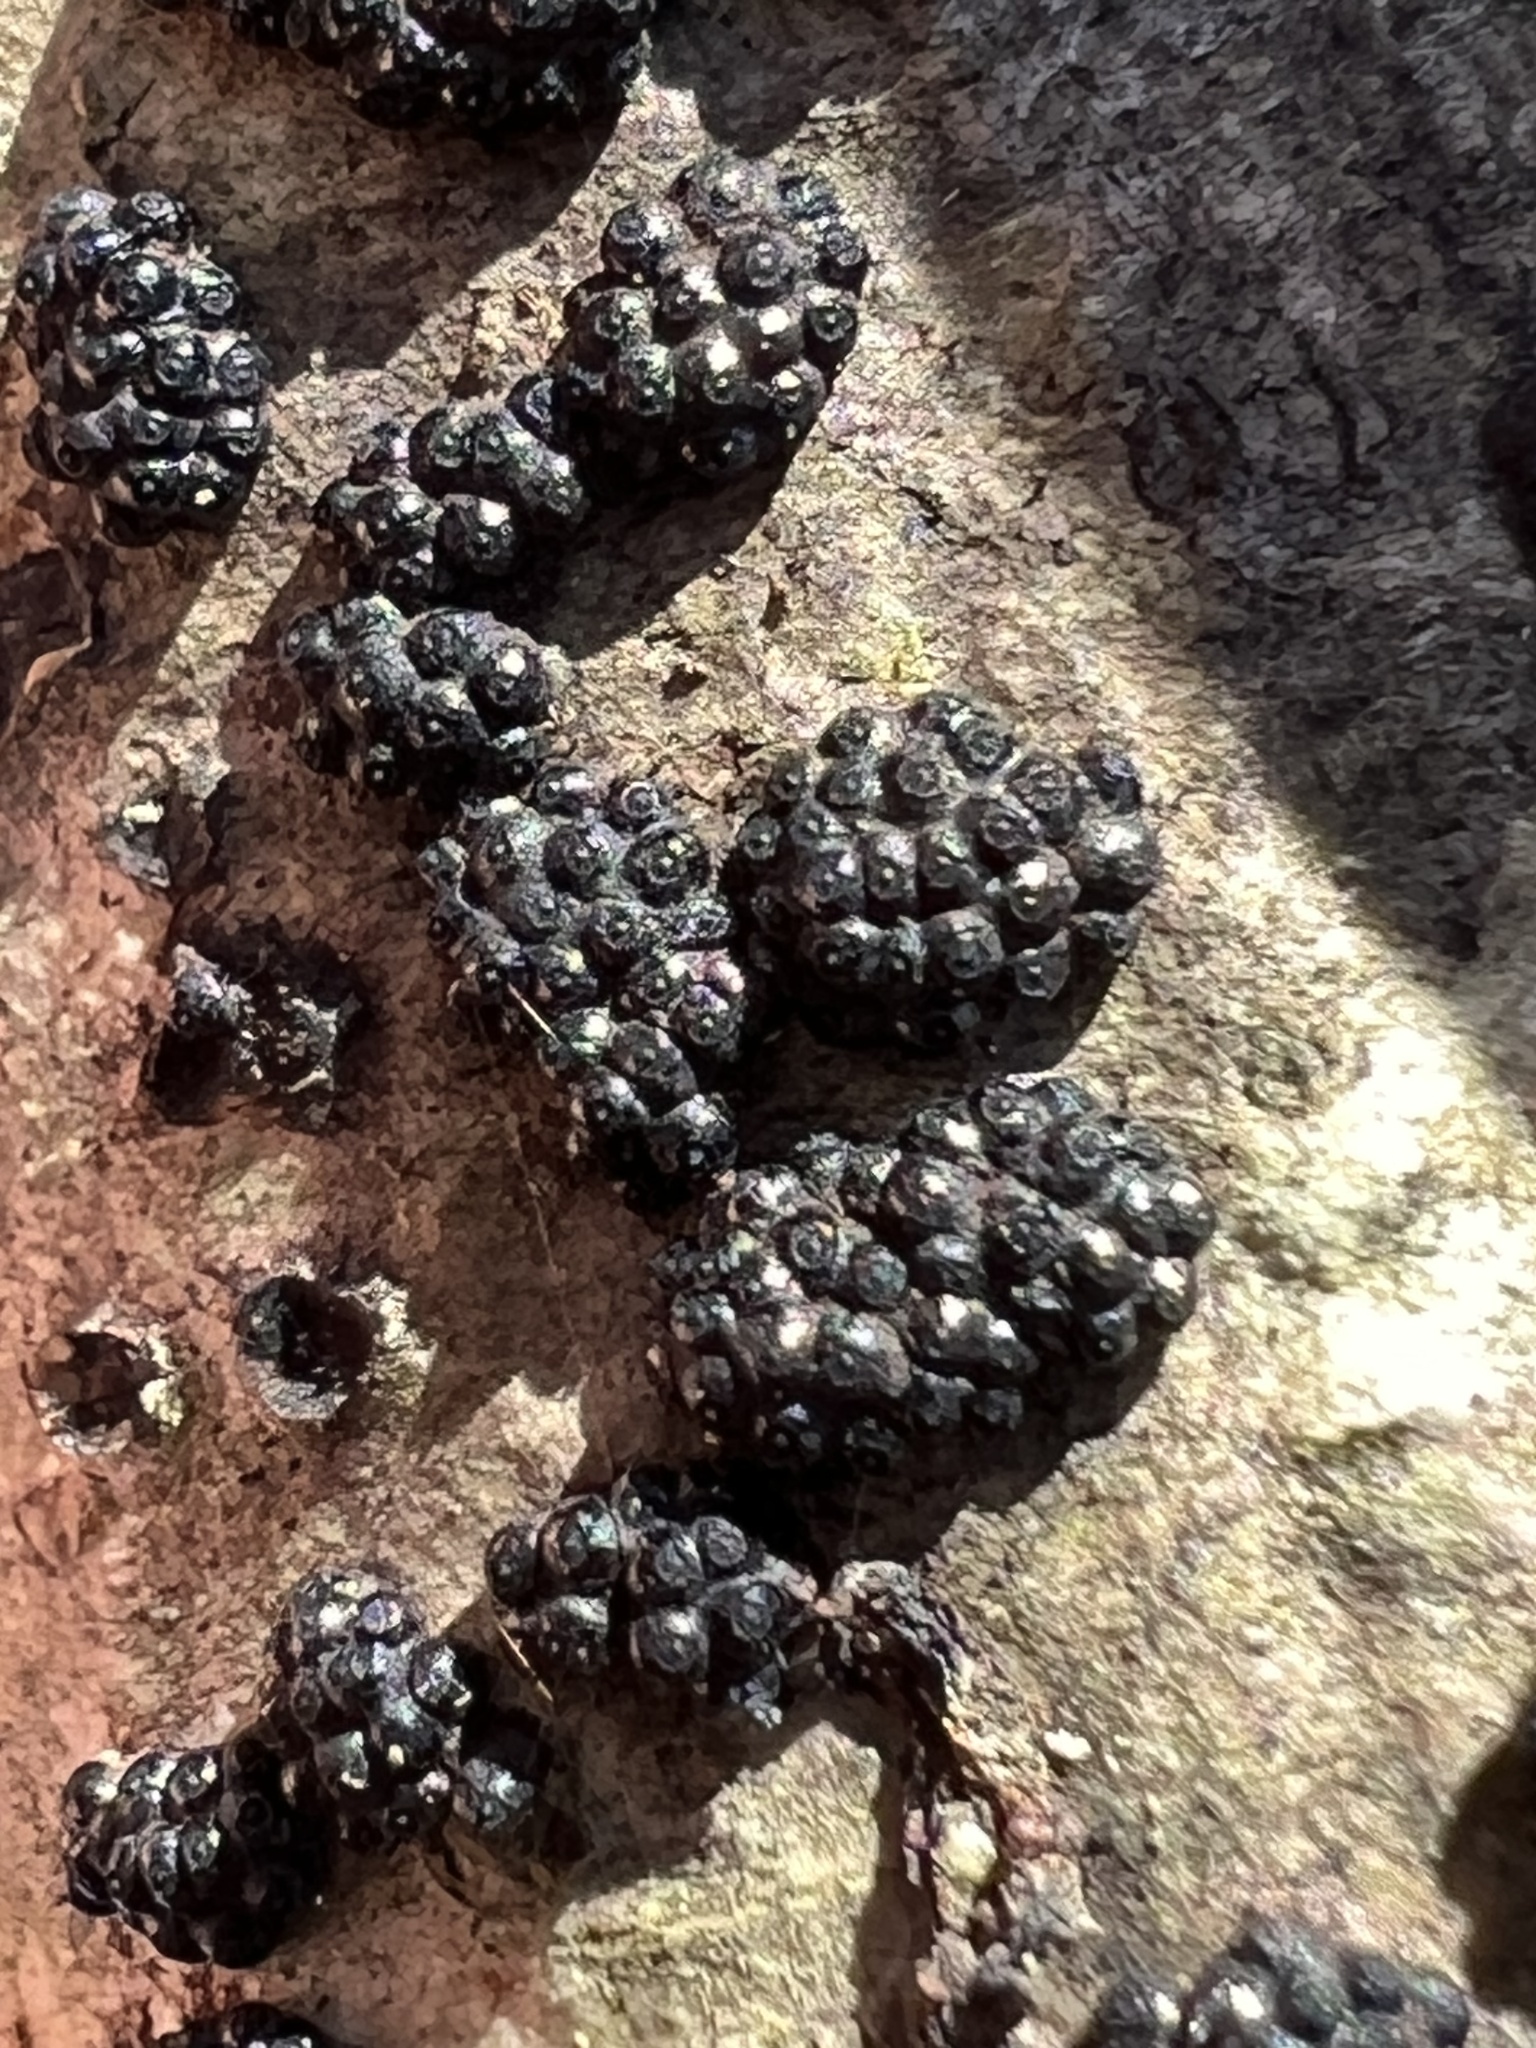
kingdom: Fungi
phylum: Ascomycota
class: Sordariomycetes
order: Xylariales
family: Hypoxylaceae
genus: Annulohypoxylon
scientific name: Annulohypoxylon truncatum
